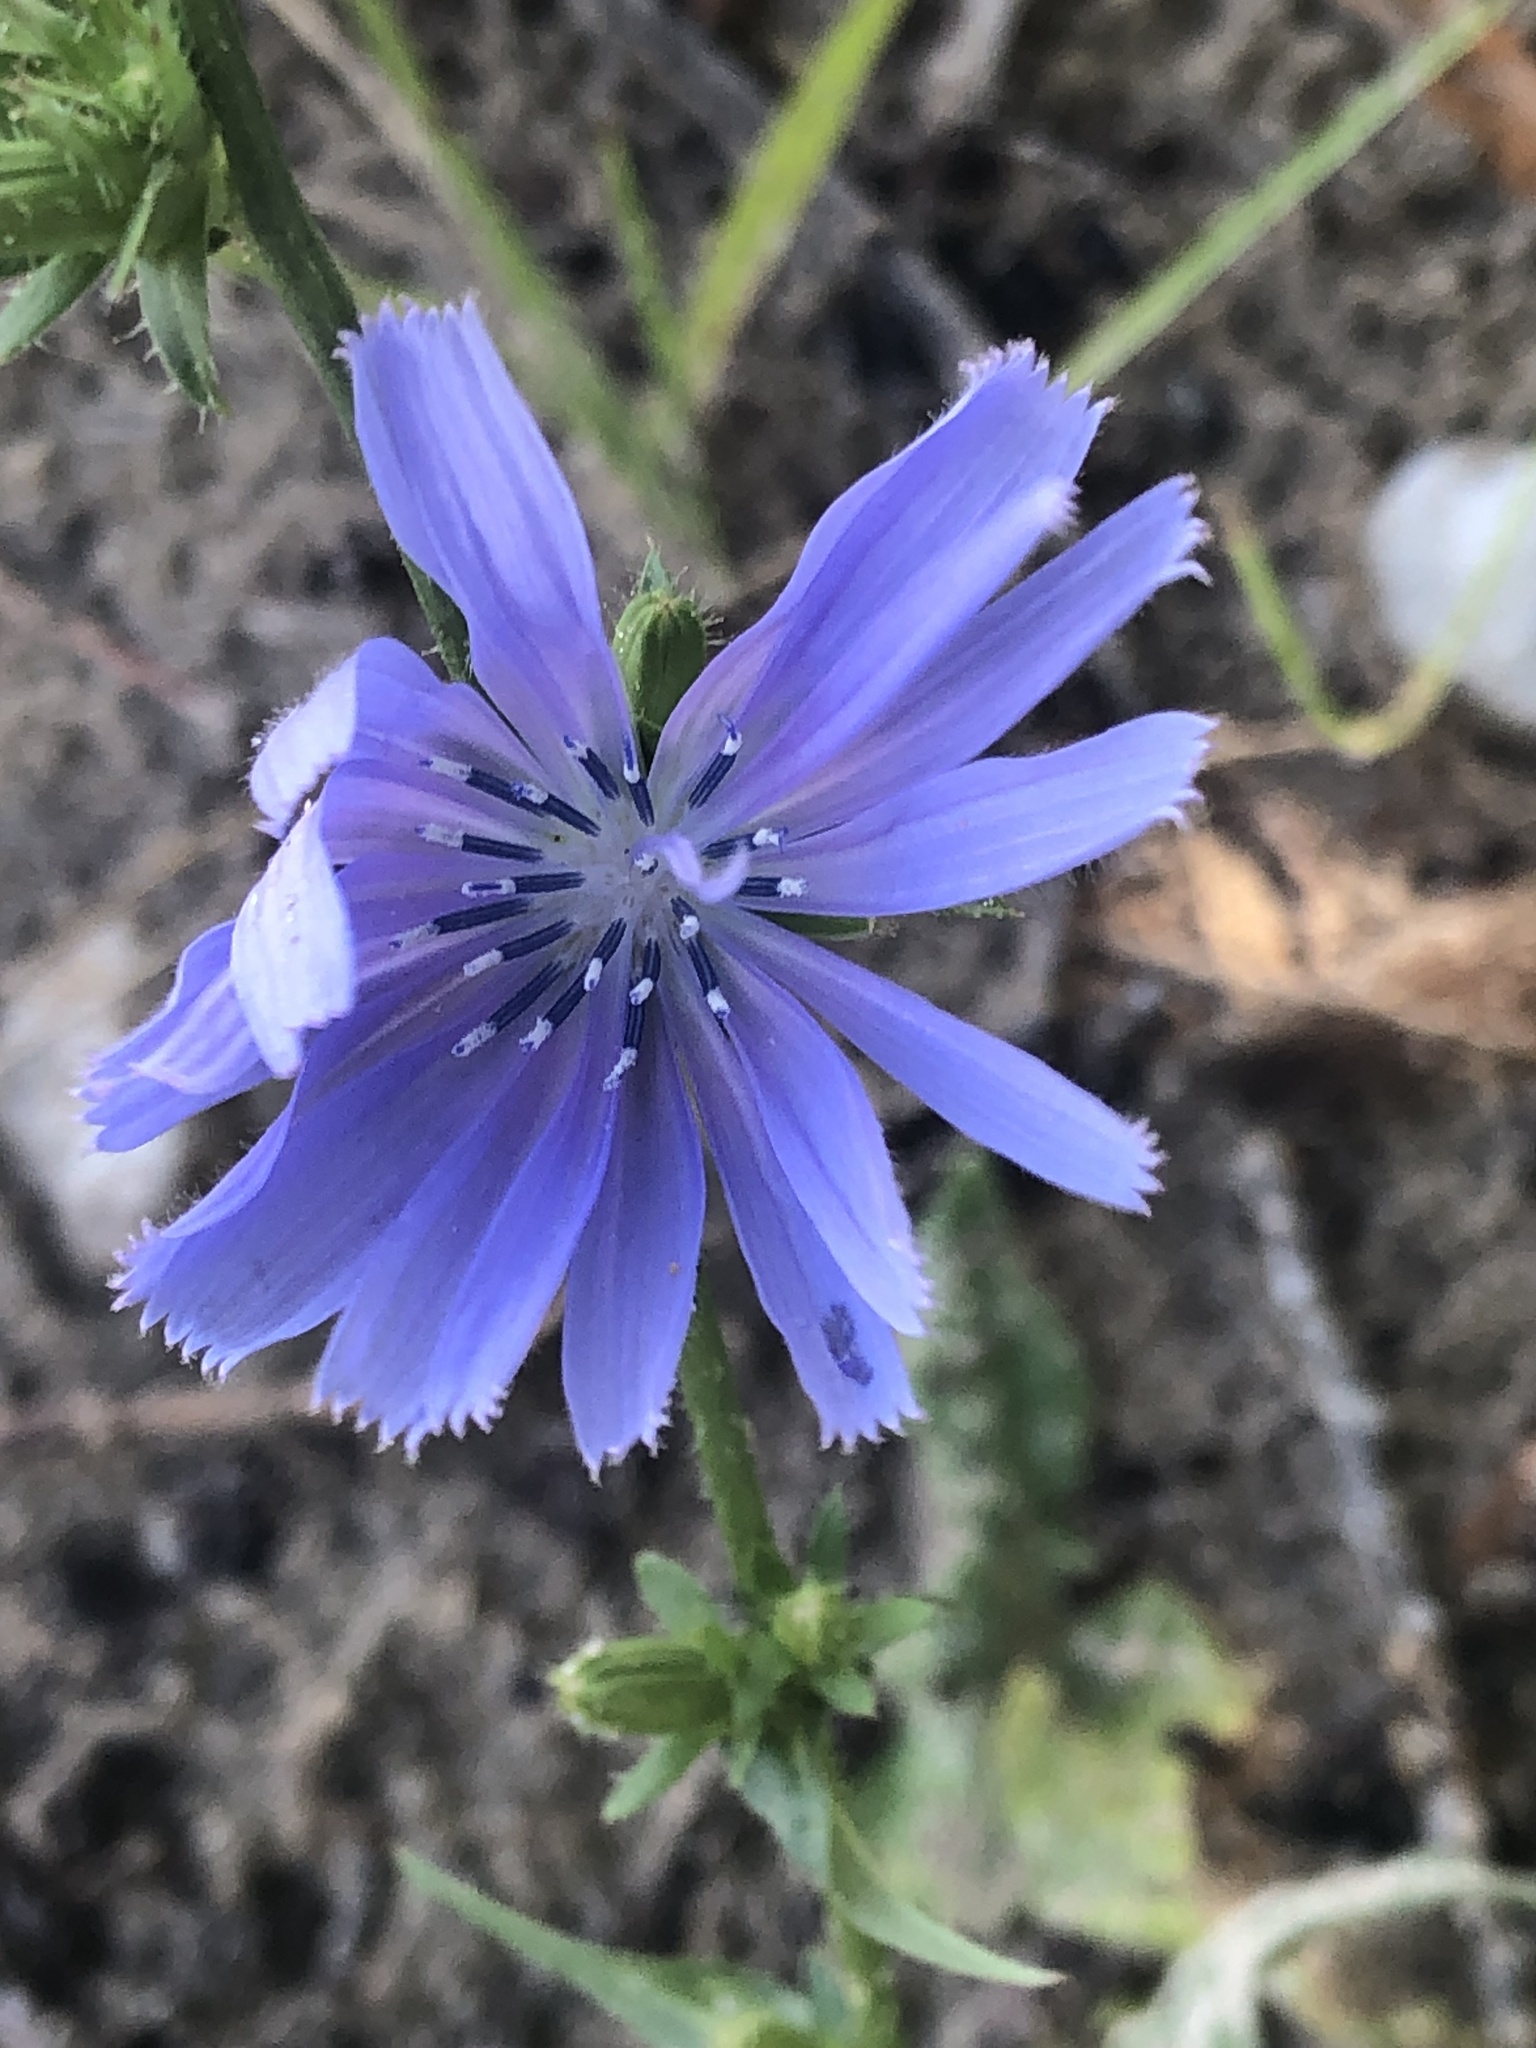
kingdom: Plantae
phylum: Tracheophyta
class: Magnoliopsida
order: Asterales
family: Asteraceae
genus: Cichorium
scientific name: Cichorium intybus
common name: Chicory
